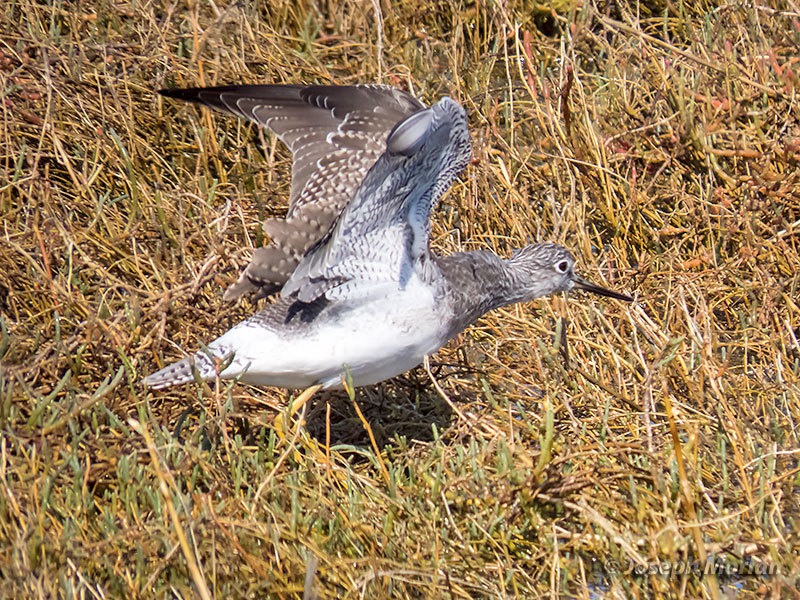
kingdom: Animalia
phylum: Chordata
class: Aves
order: Charadriiformes
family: Scolopacidae
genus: Tringa
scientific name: Tringa melanoleuca
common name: Greater yellowlegs
